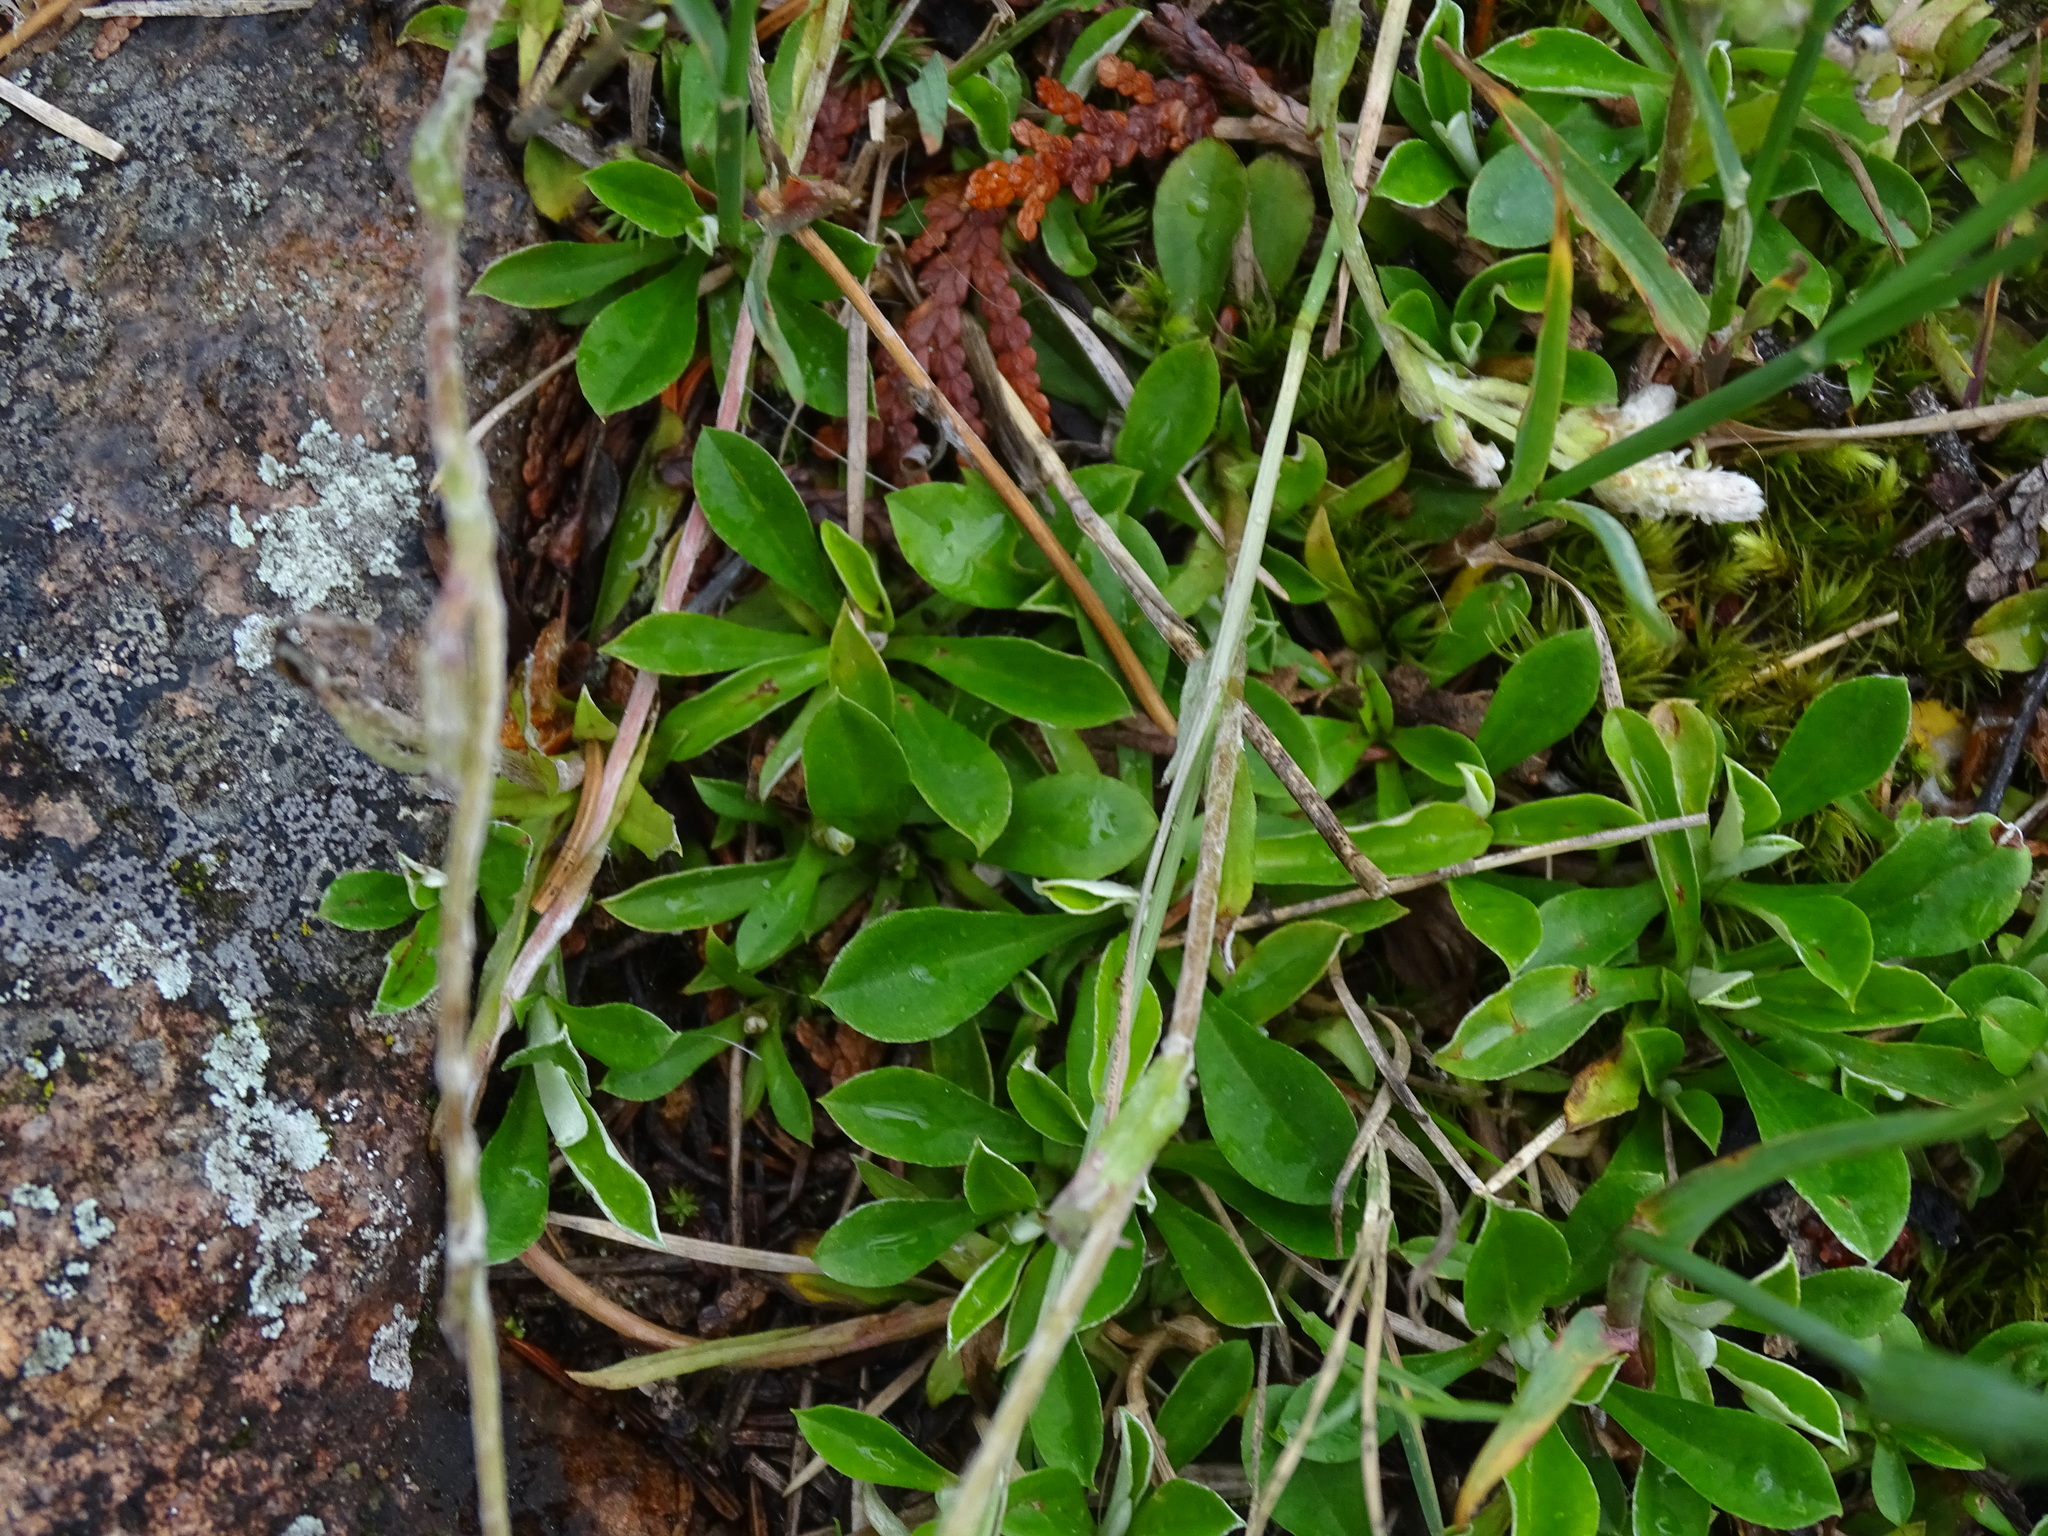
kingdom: Plantae
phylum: Tracheophyta
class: Magnoliopsida
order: Asterales
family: Asteraceae
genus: Antennaria
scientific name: Antennaria howellii
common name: Howell's pussytoes
